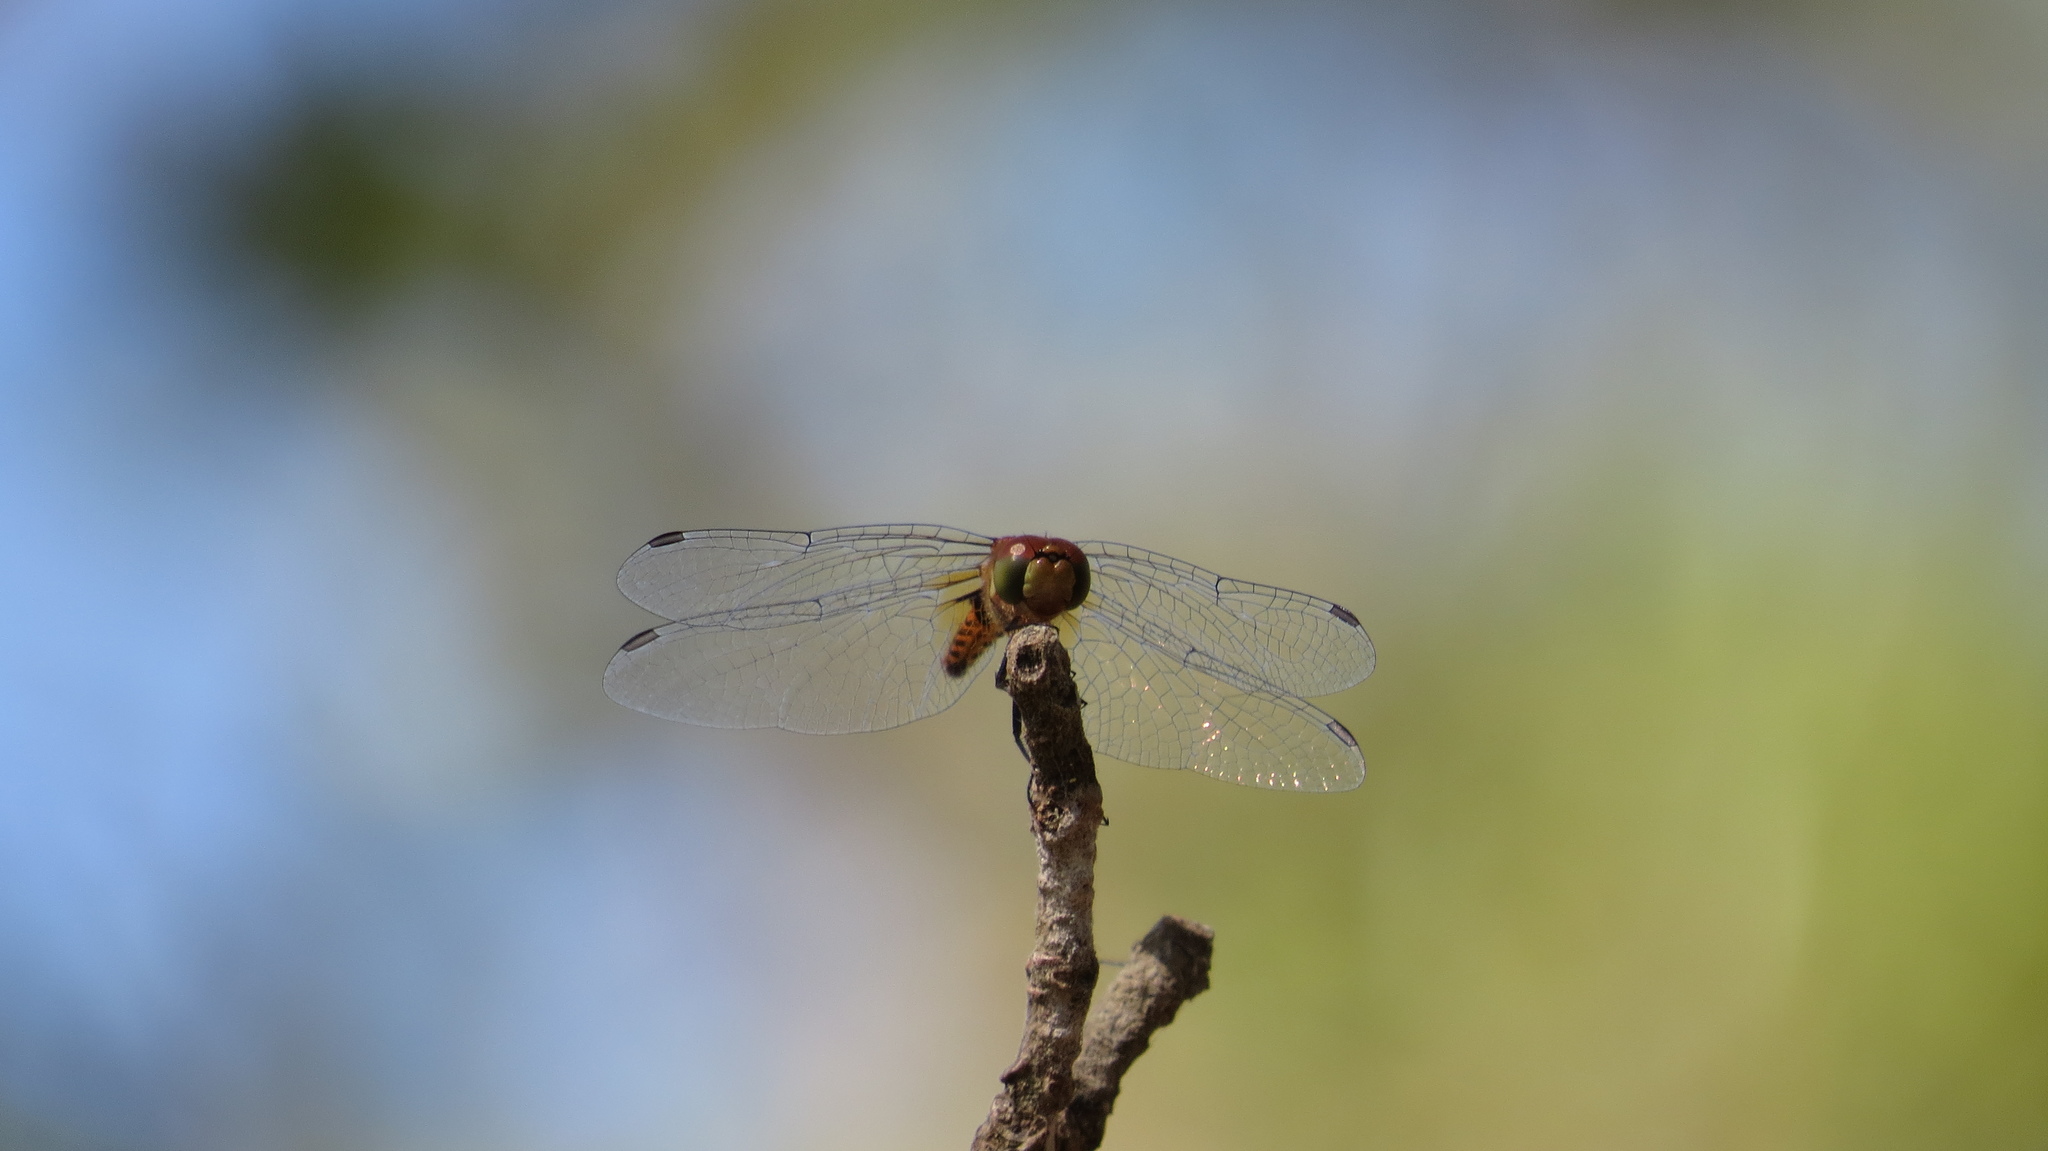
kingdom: Animalia
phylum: Arthropoda
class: Insecta
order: Odonata
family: Libellulidae
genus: Aethriamanta
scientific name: Aethriamanta nymphaeae
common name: L-spot basker
